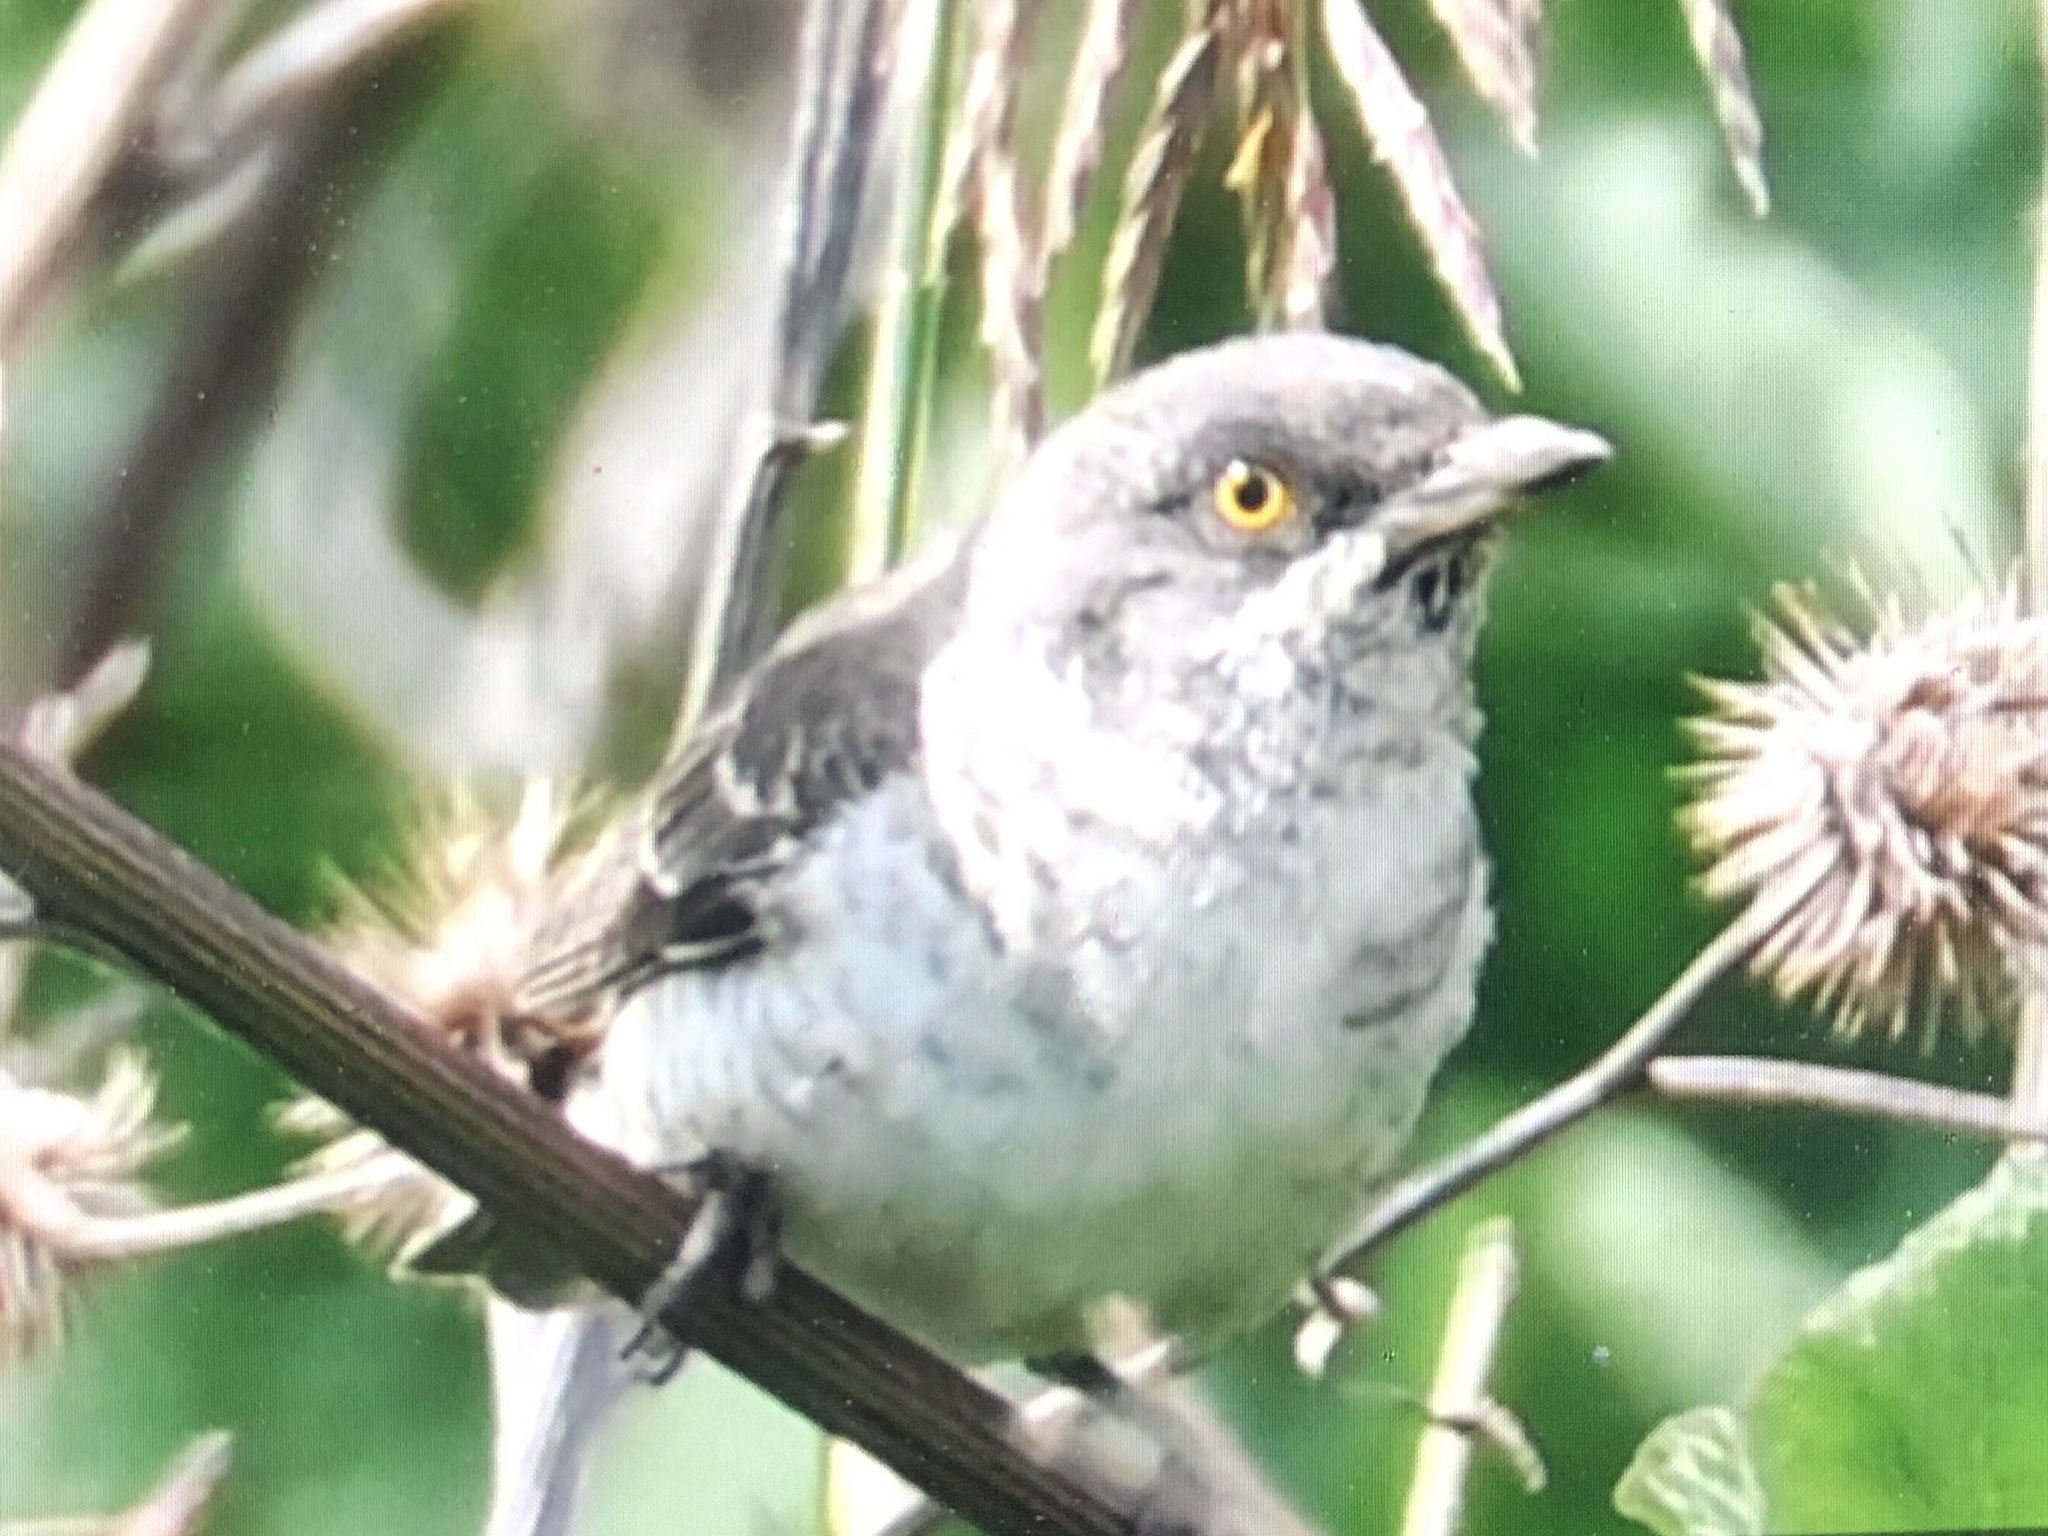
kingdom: Animalia
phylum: Chordata
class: Aves
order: Passeriformes
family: Sylviidae
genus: Sylvia
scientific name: Sylvia nisoria
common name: Barred warbler
